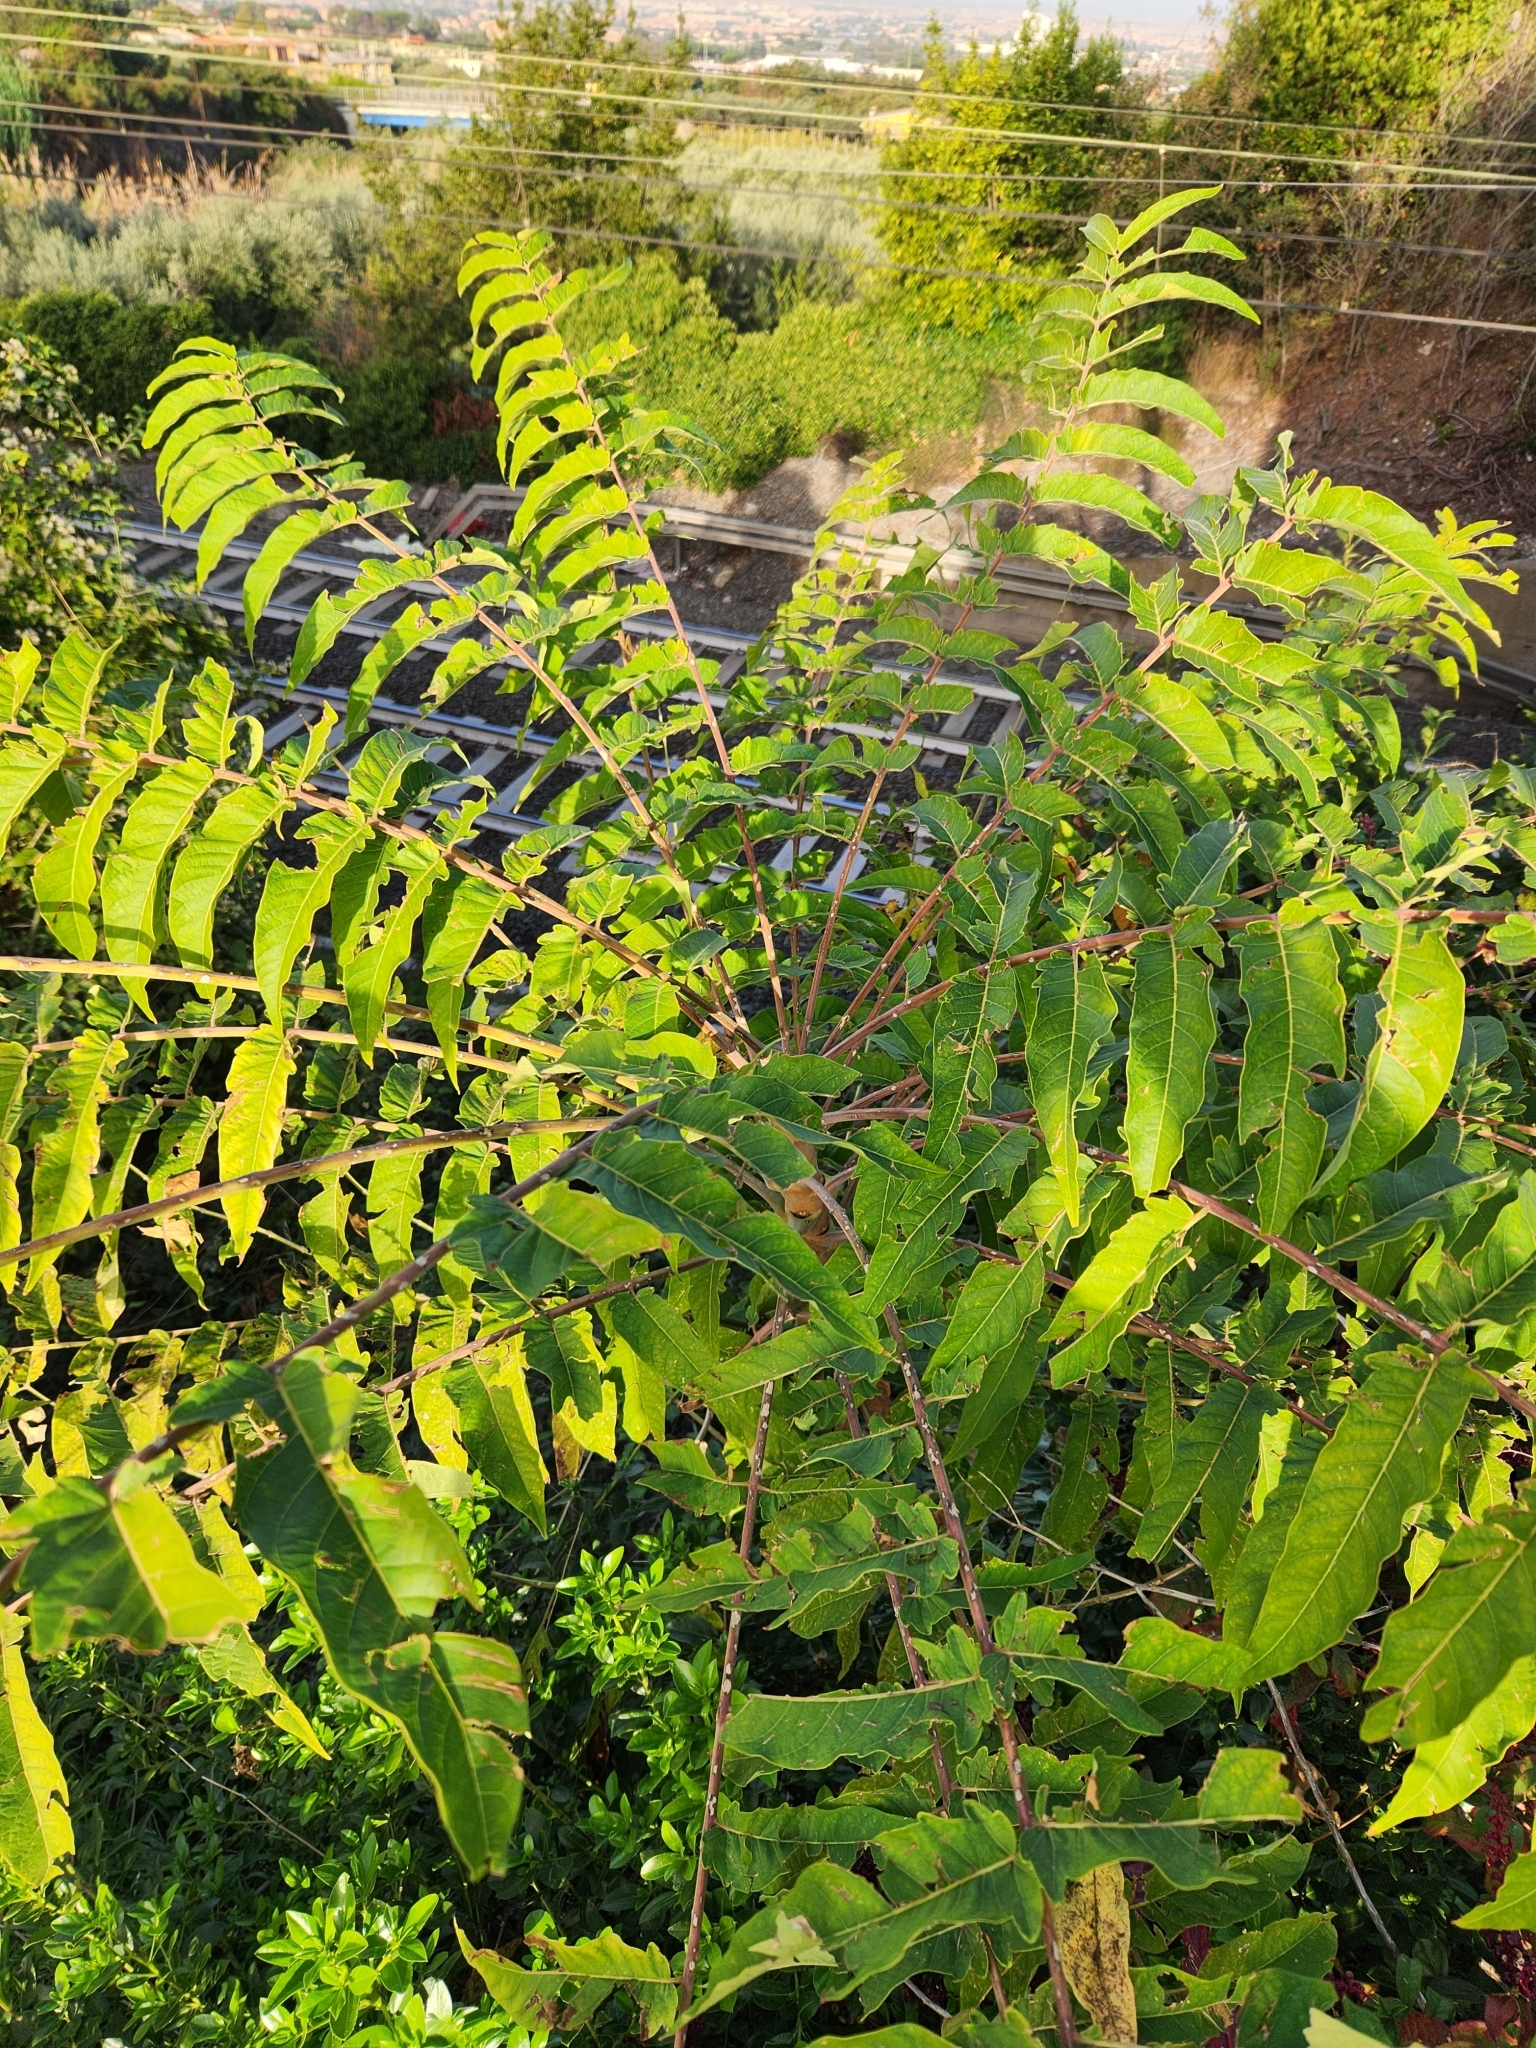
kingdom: Plantae
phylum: Tracheophyta
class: Magnoliopsida
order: Sapindales
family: Simaroubaceae
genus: Ailanthus
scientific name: Ailanthus altissima
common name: Tree-of-heaven
